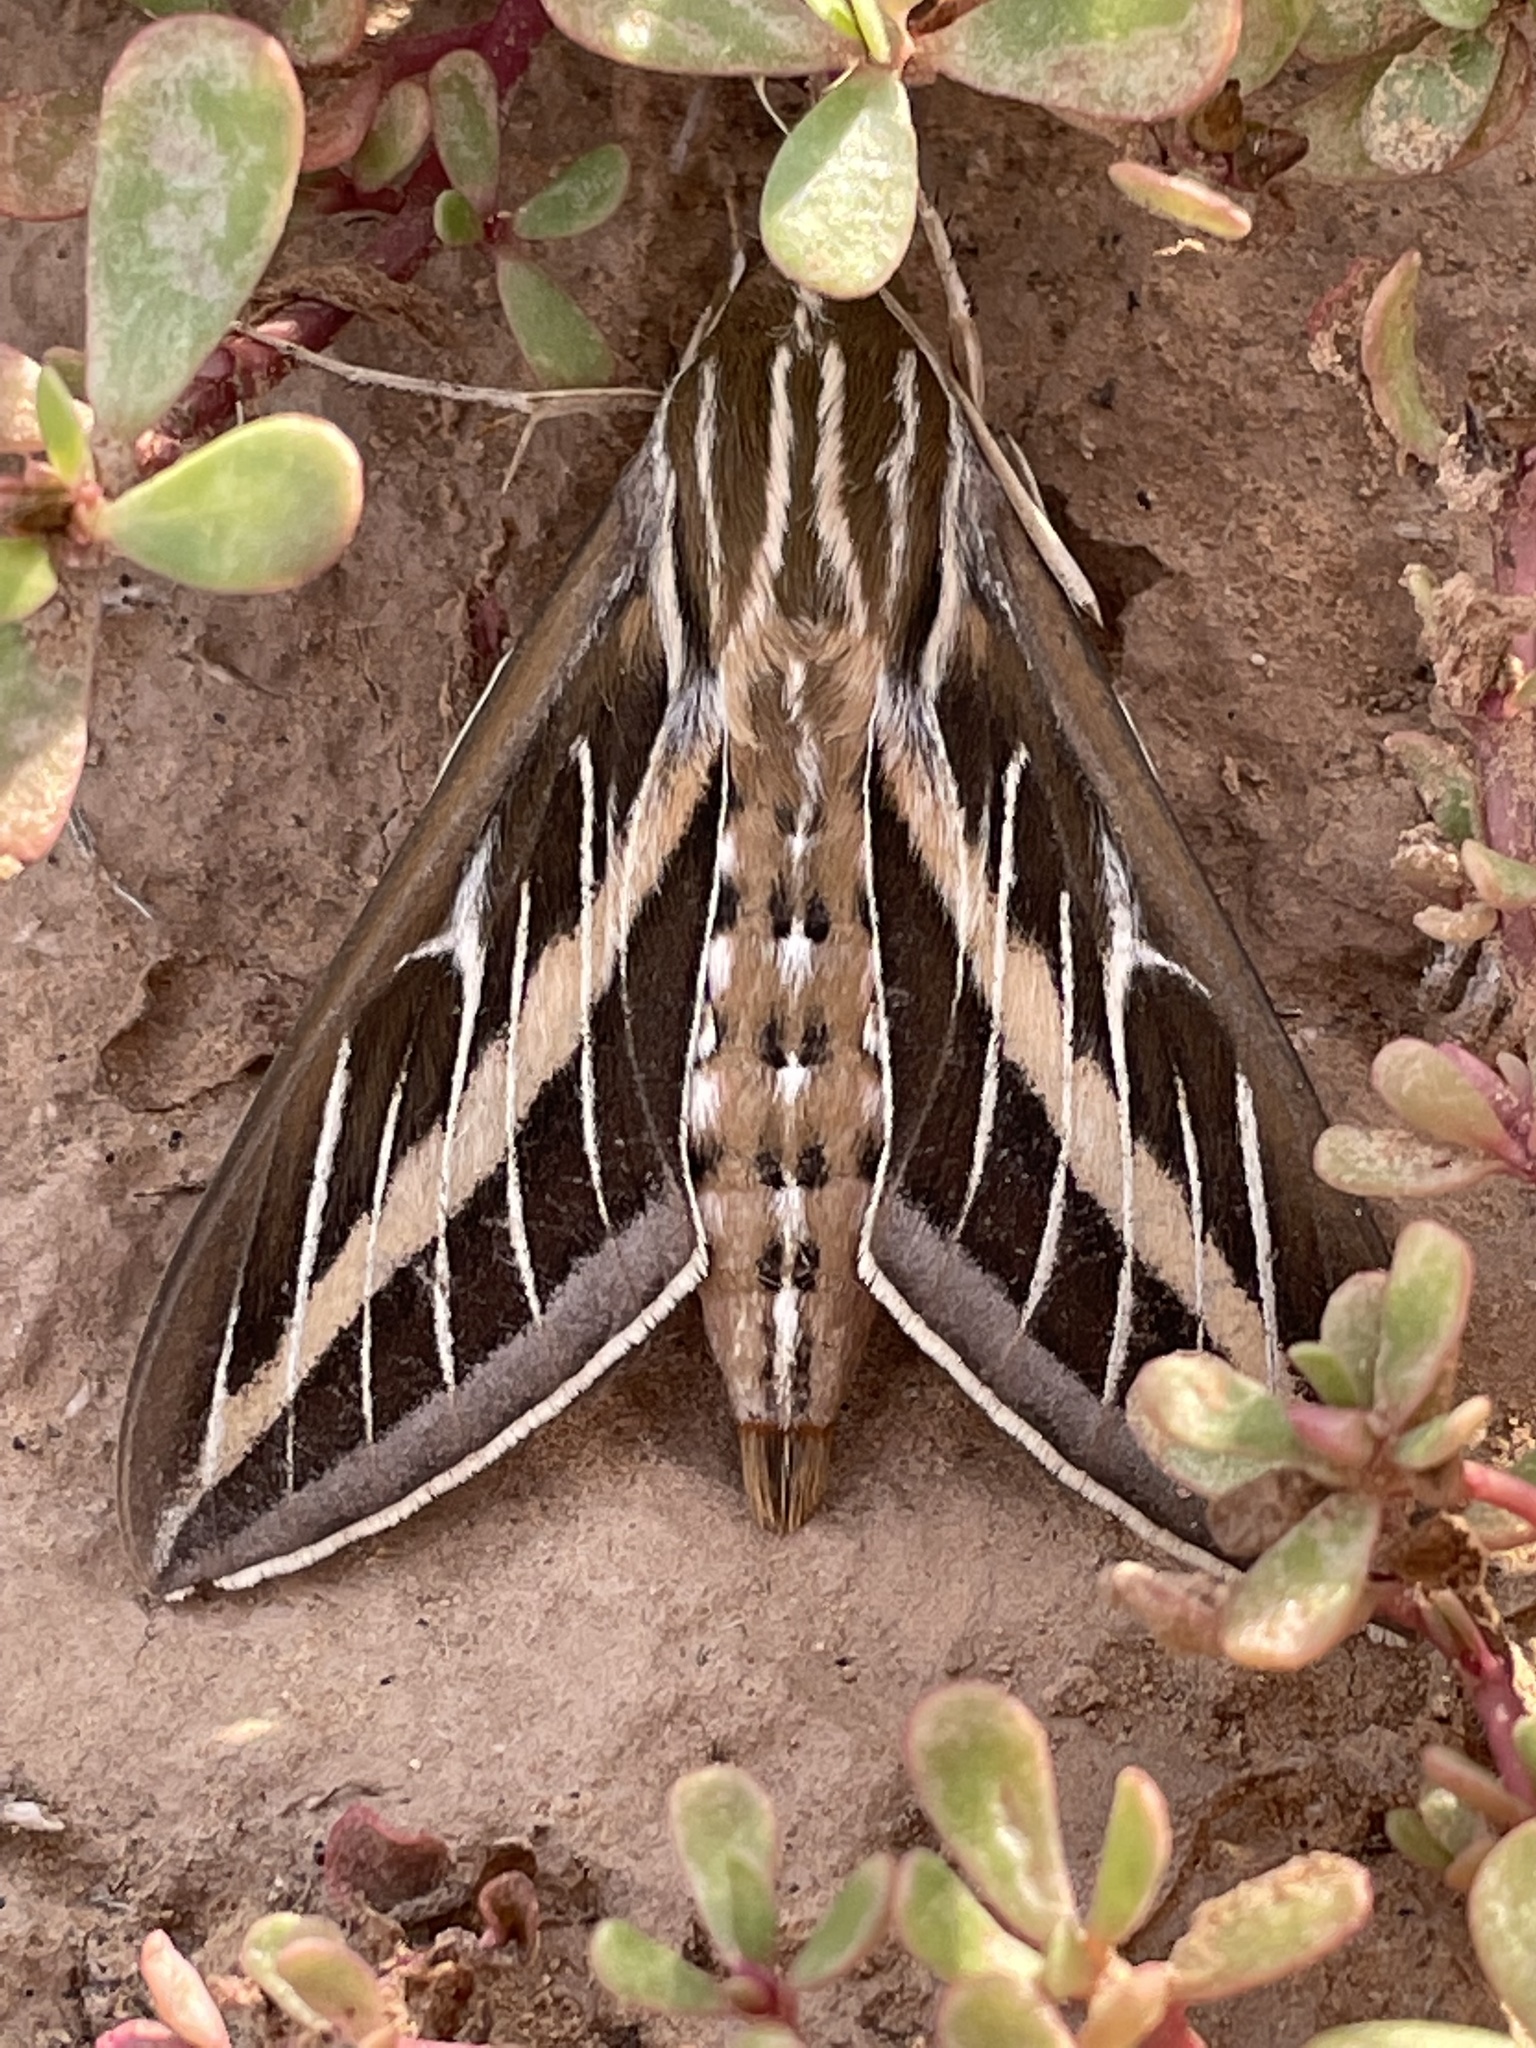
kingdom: Animalia
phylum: Arthropoda
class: Insecta
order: Lepidoptera
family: Sphingidae
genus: Hyles
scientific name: Hyles lineata
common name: White-lined sphinx
